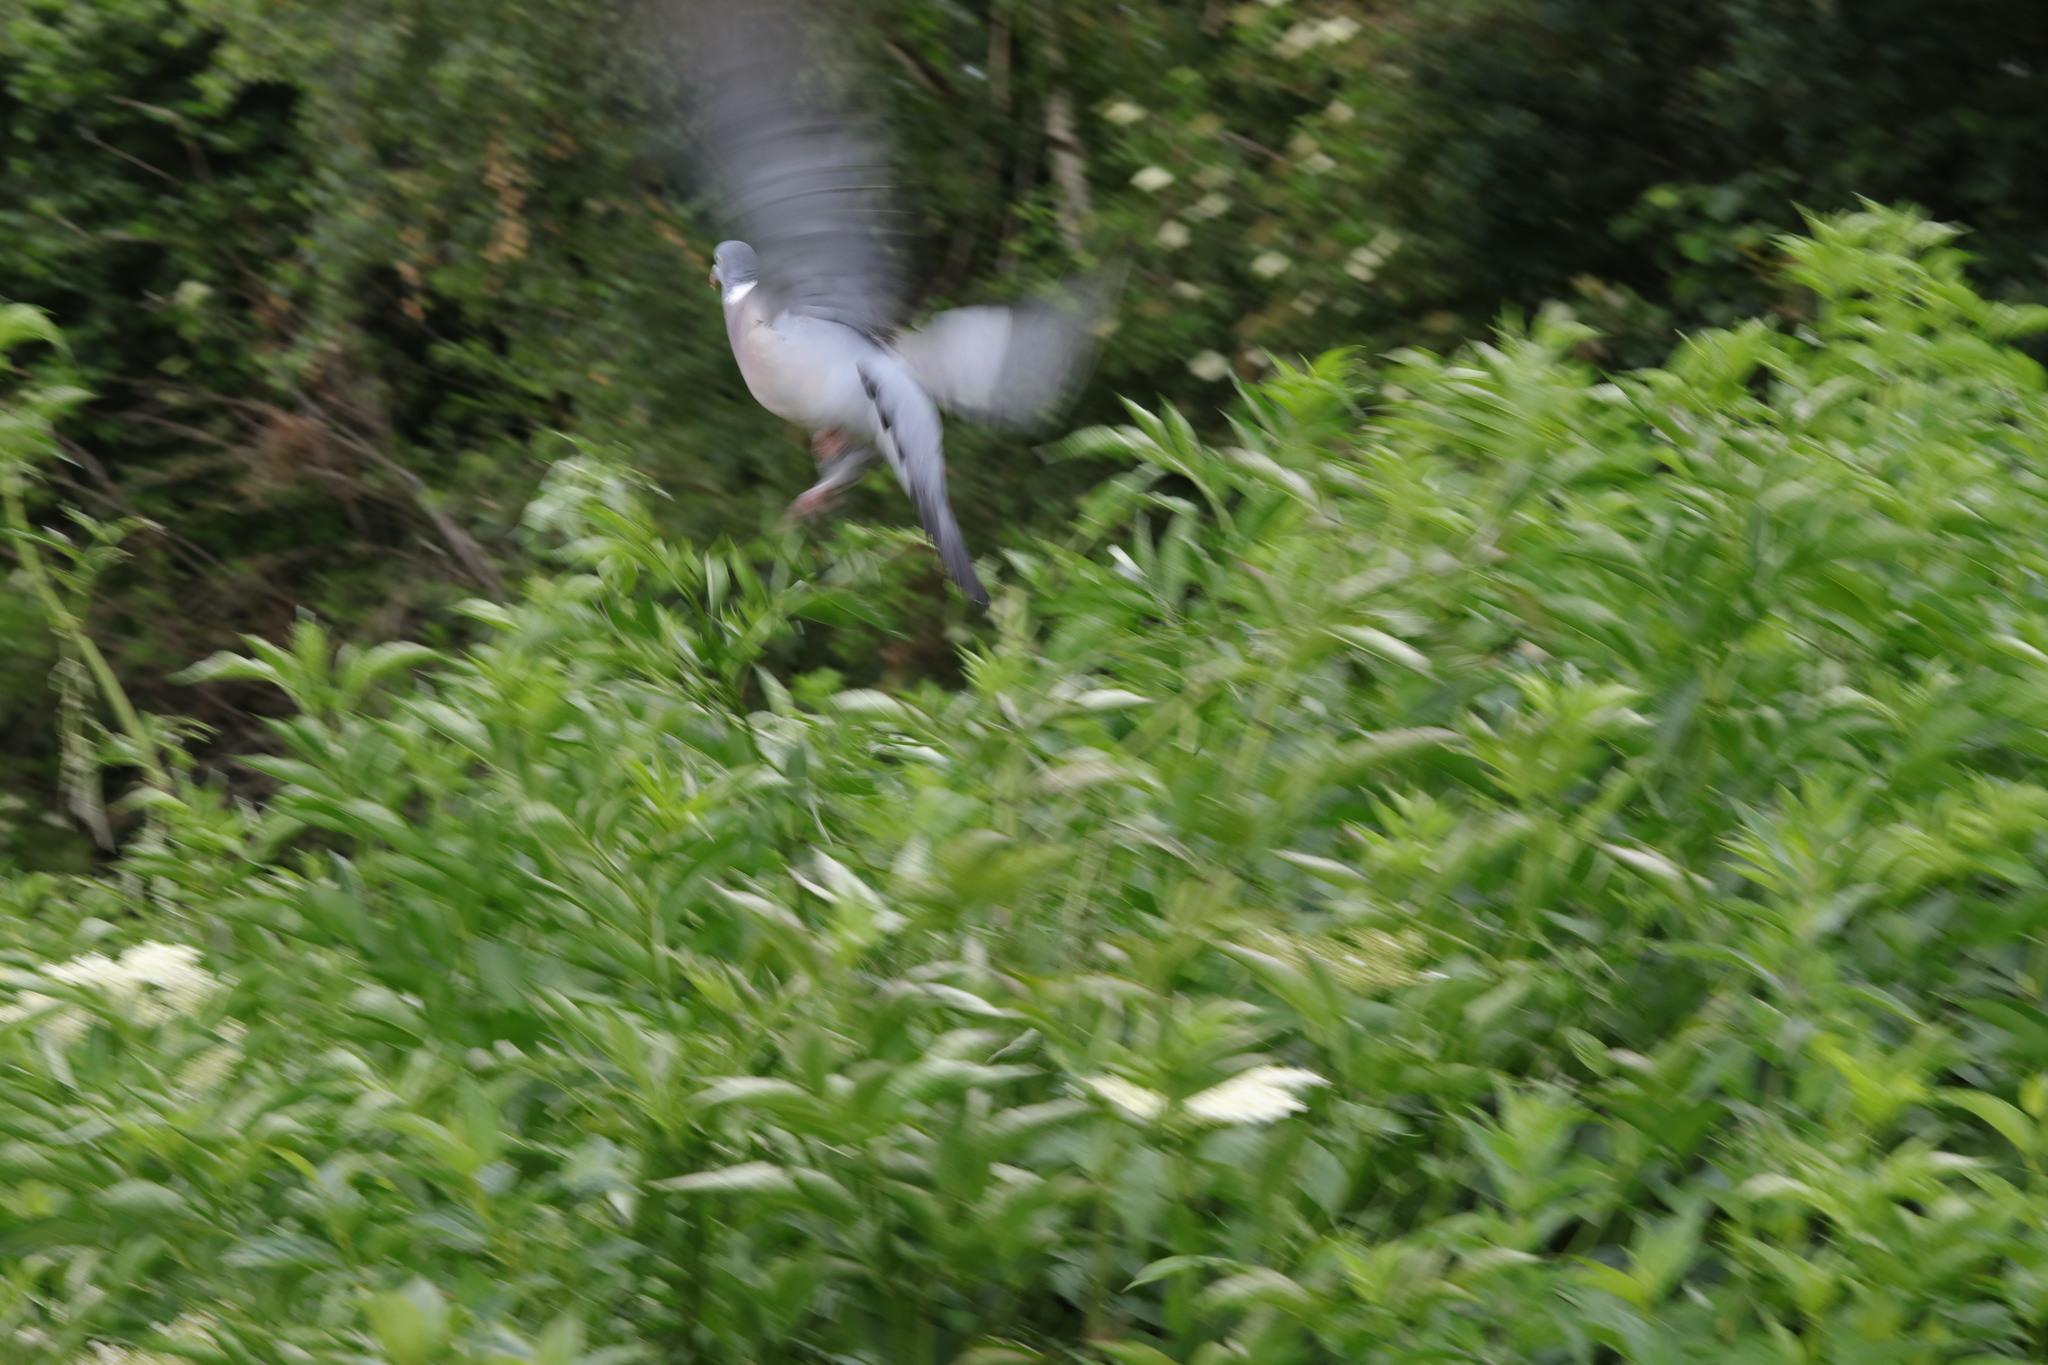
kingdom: Animalia
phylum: Chordata
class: Aves
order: Columbiformes
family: Columbidae
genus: Columba
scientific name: Columba palumbus
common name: Common wood pigeon
